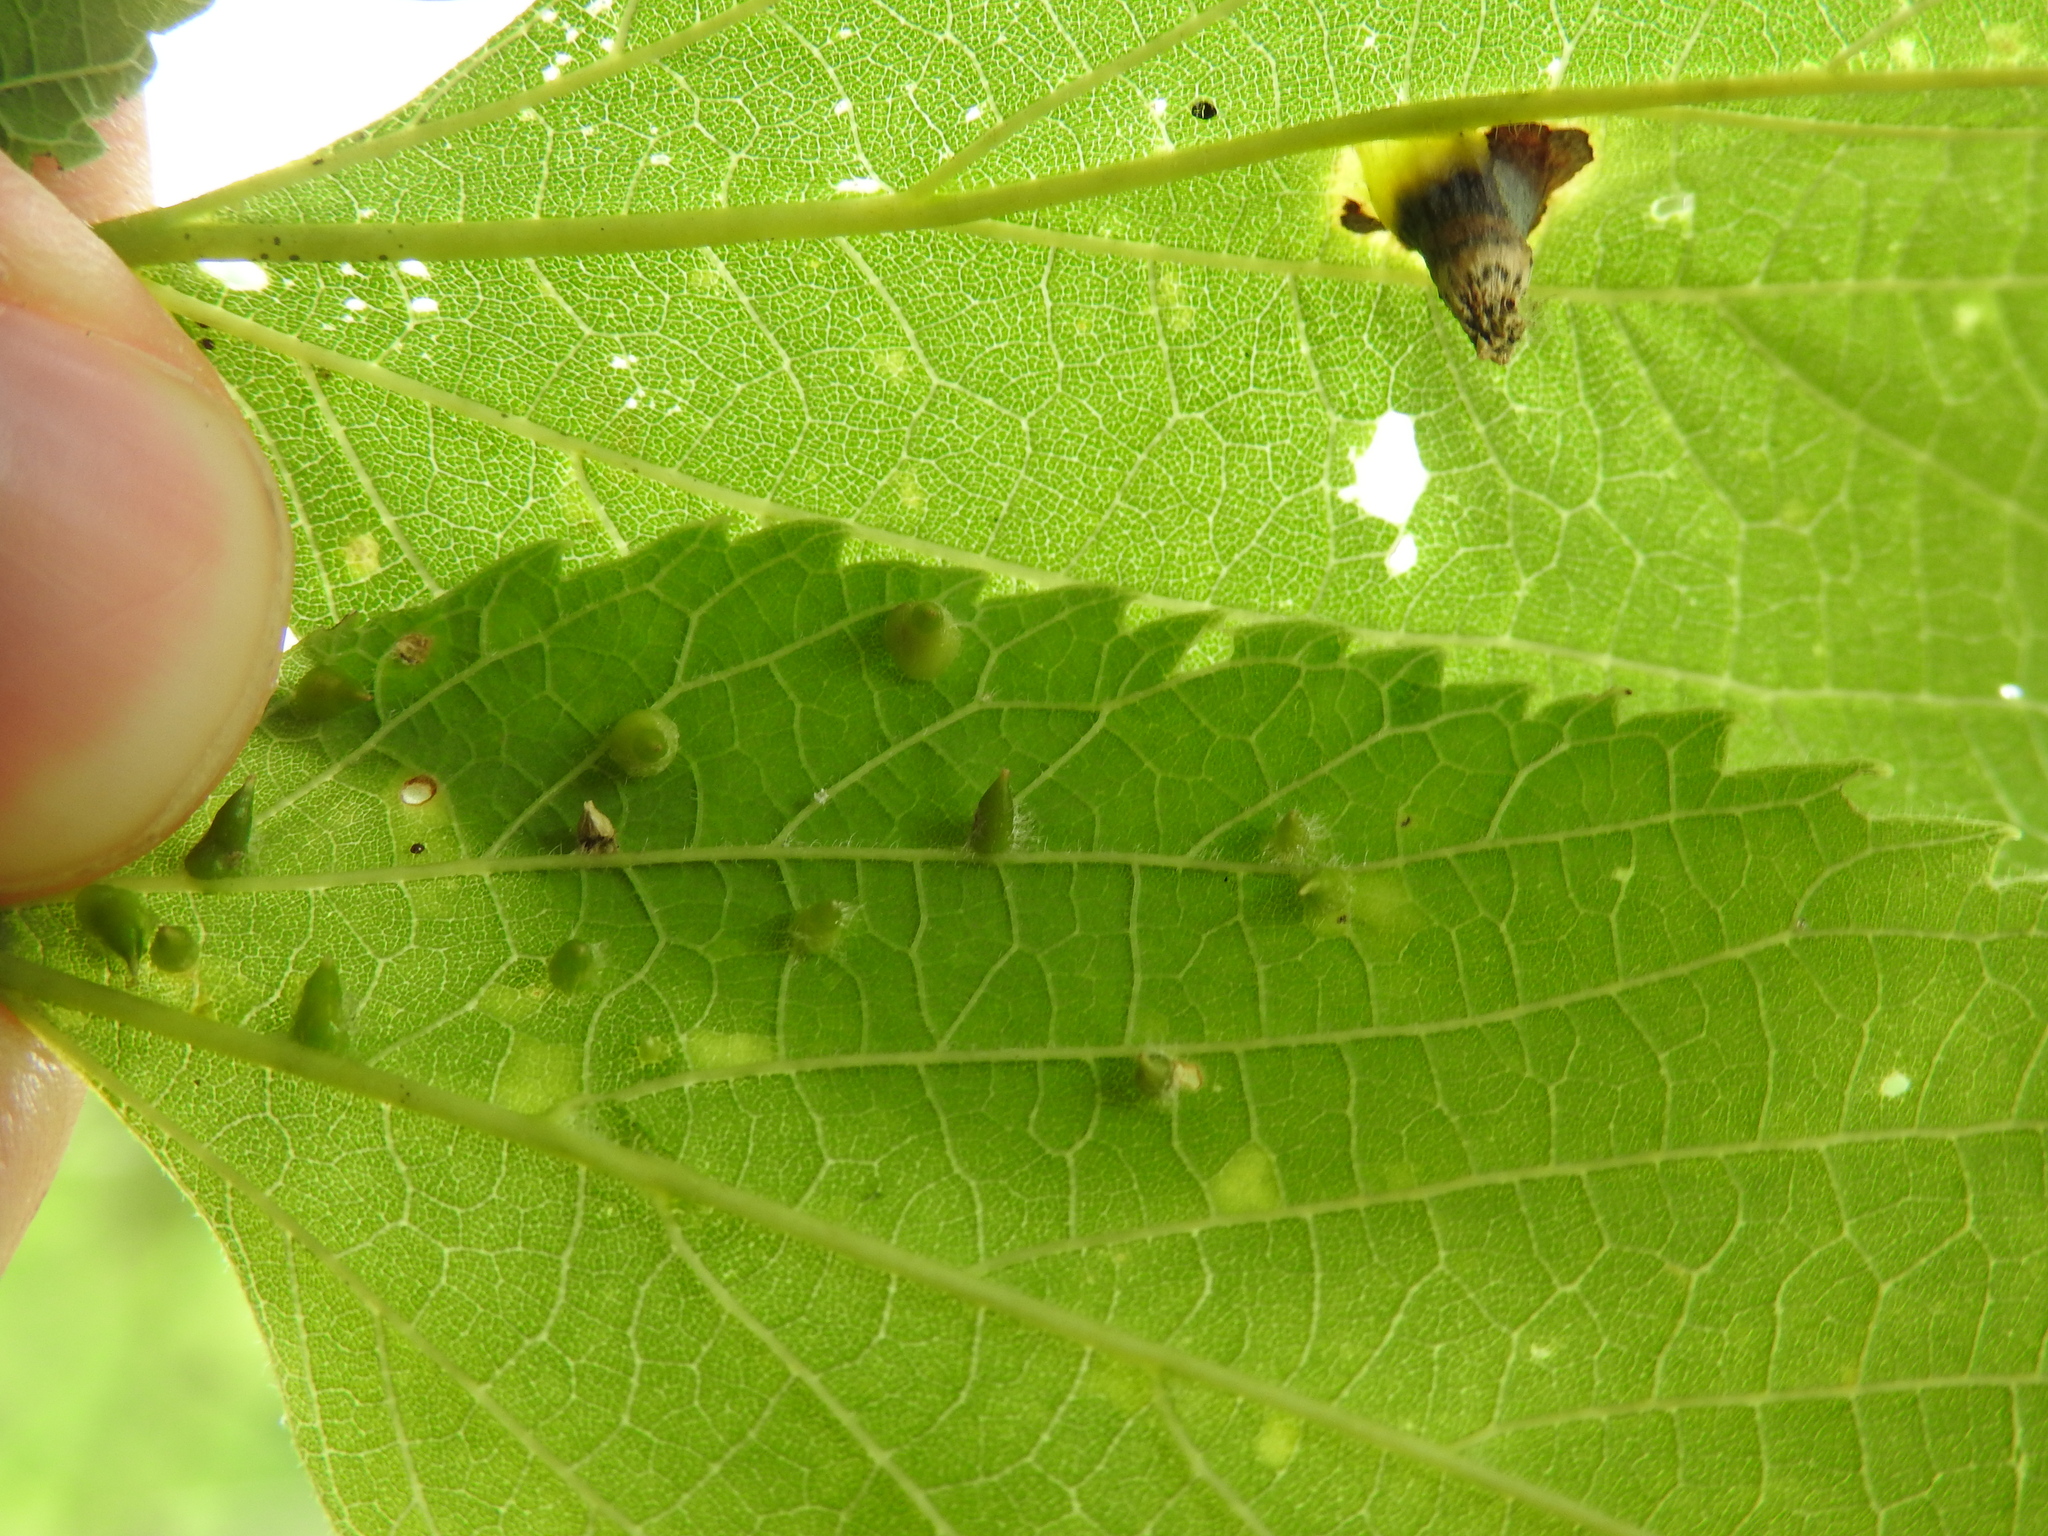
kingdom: Animalia
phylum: Arthropoda
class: Insecta
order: Diptera
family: Cecidomyiidae
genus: Celticecis
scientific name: Celticecis pilosa
